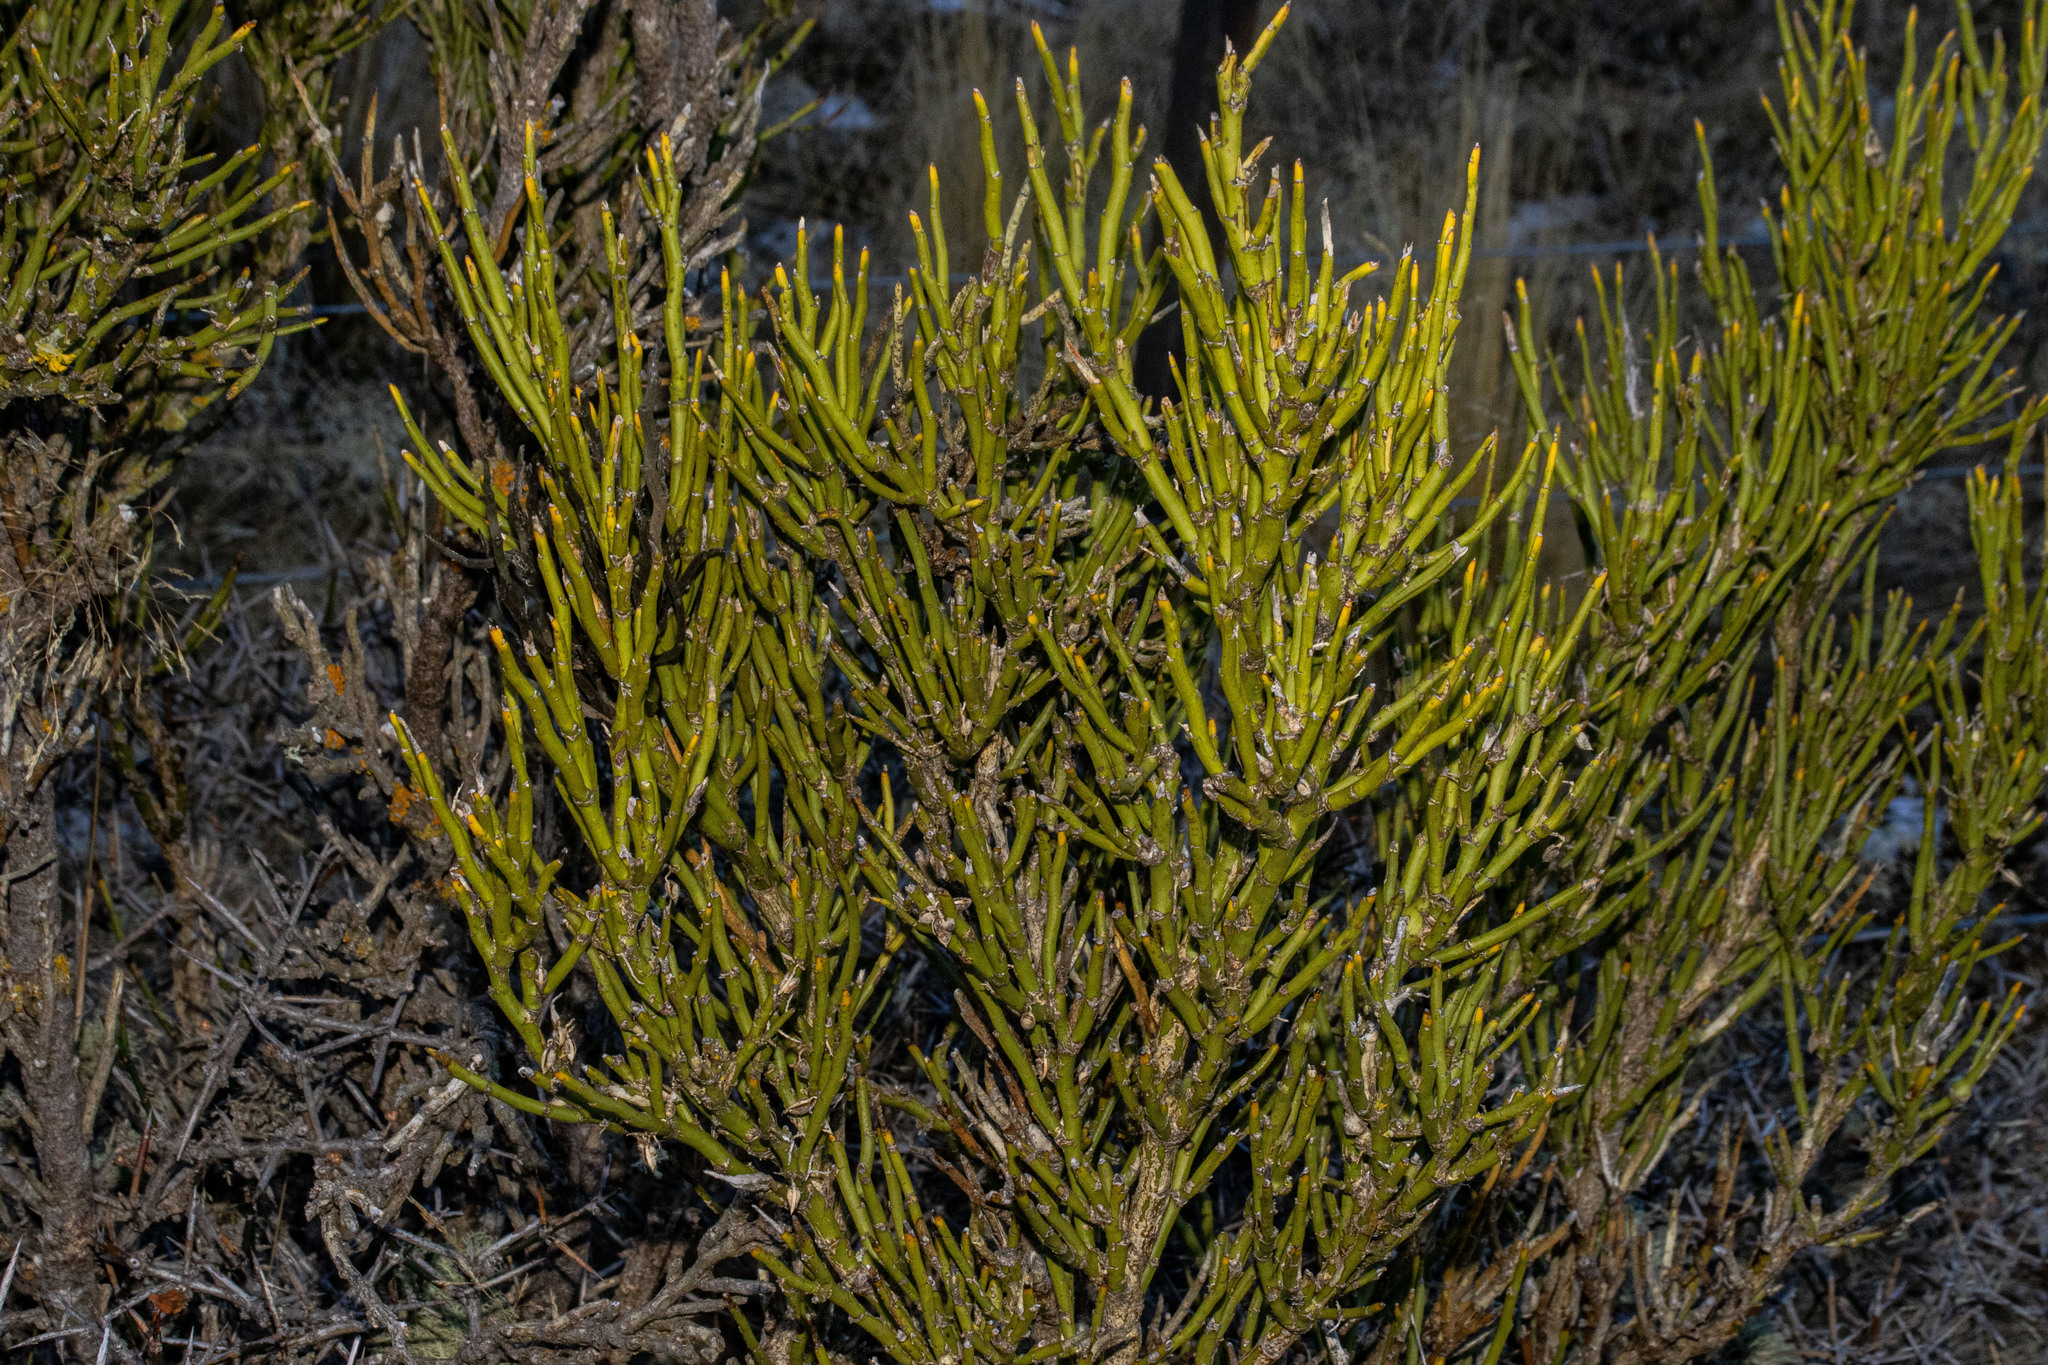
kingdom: Plantae
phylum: Tracheophyta
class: Magnoliopsida
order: Fabales
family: Fabaceae
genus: Carmichaelia
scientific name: Carmichaelia petriei
